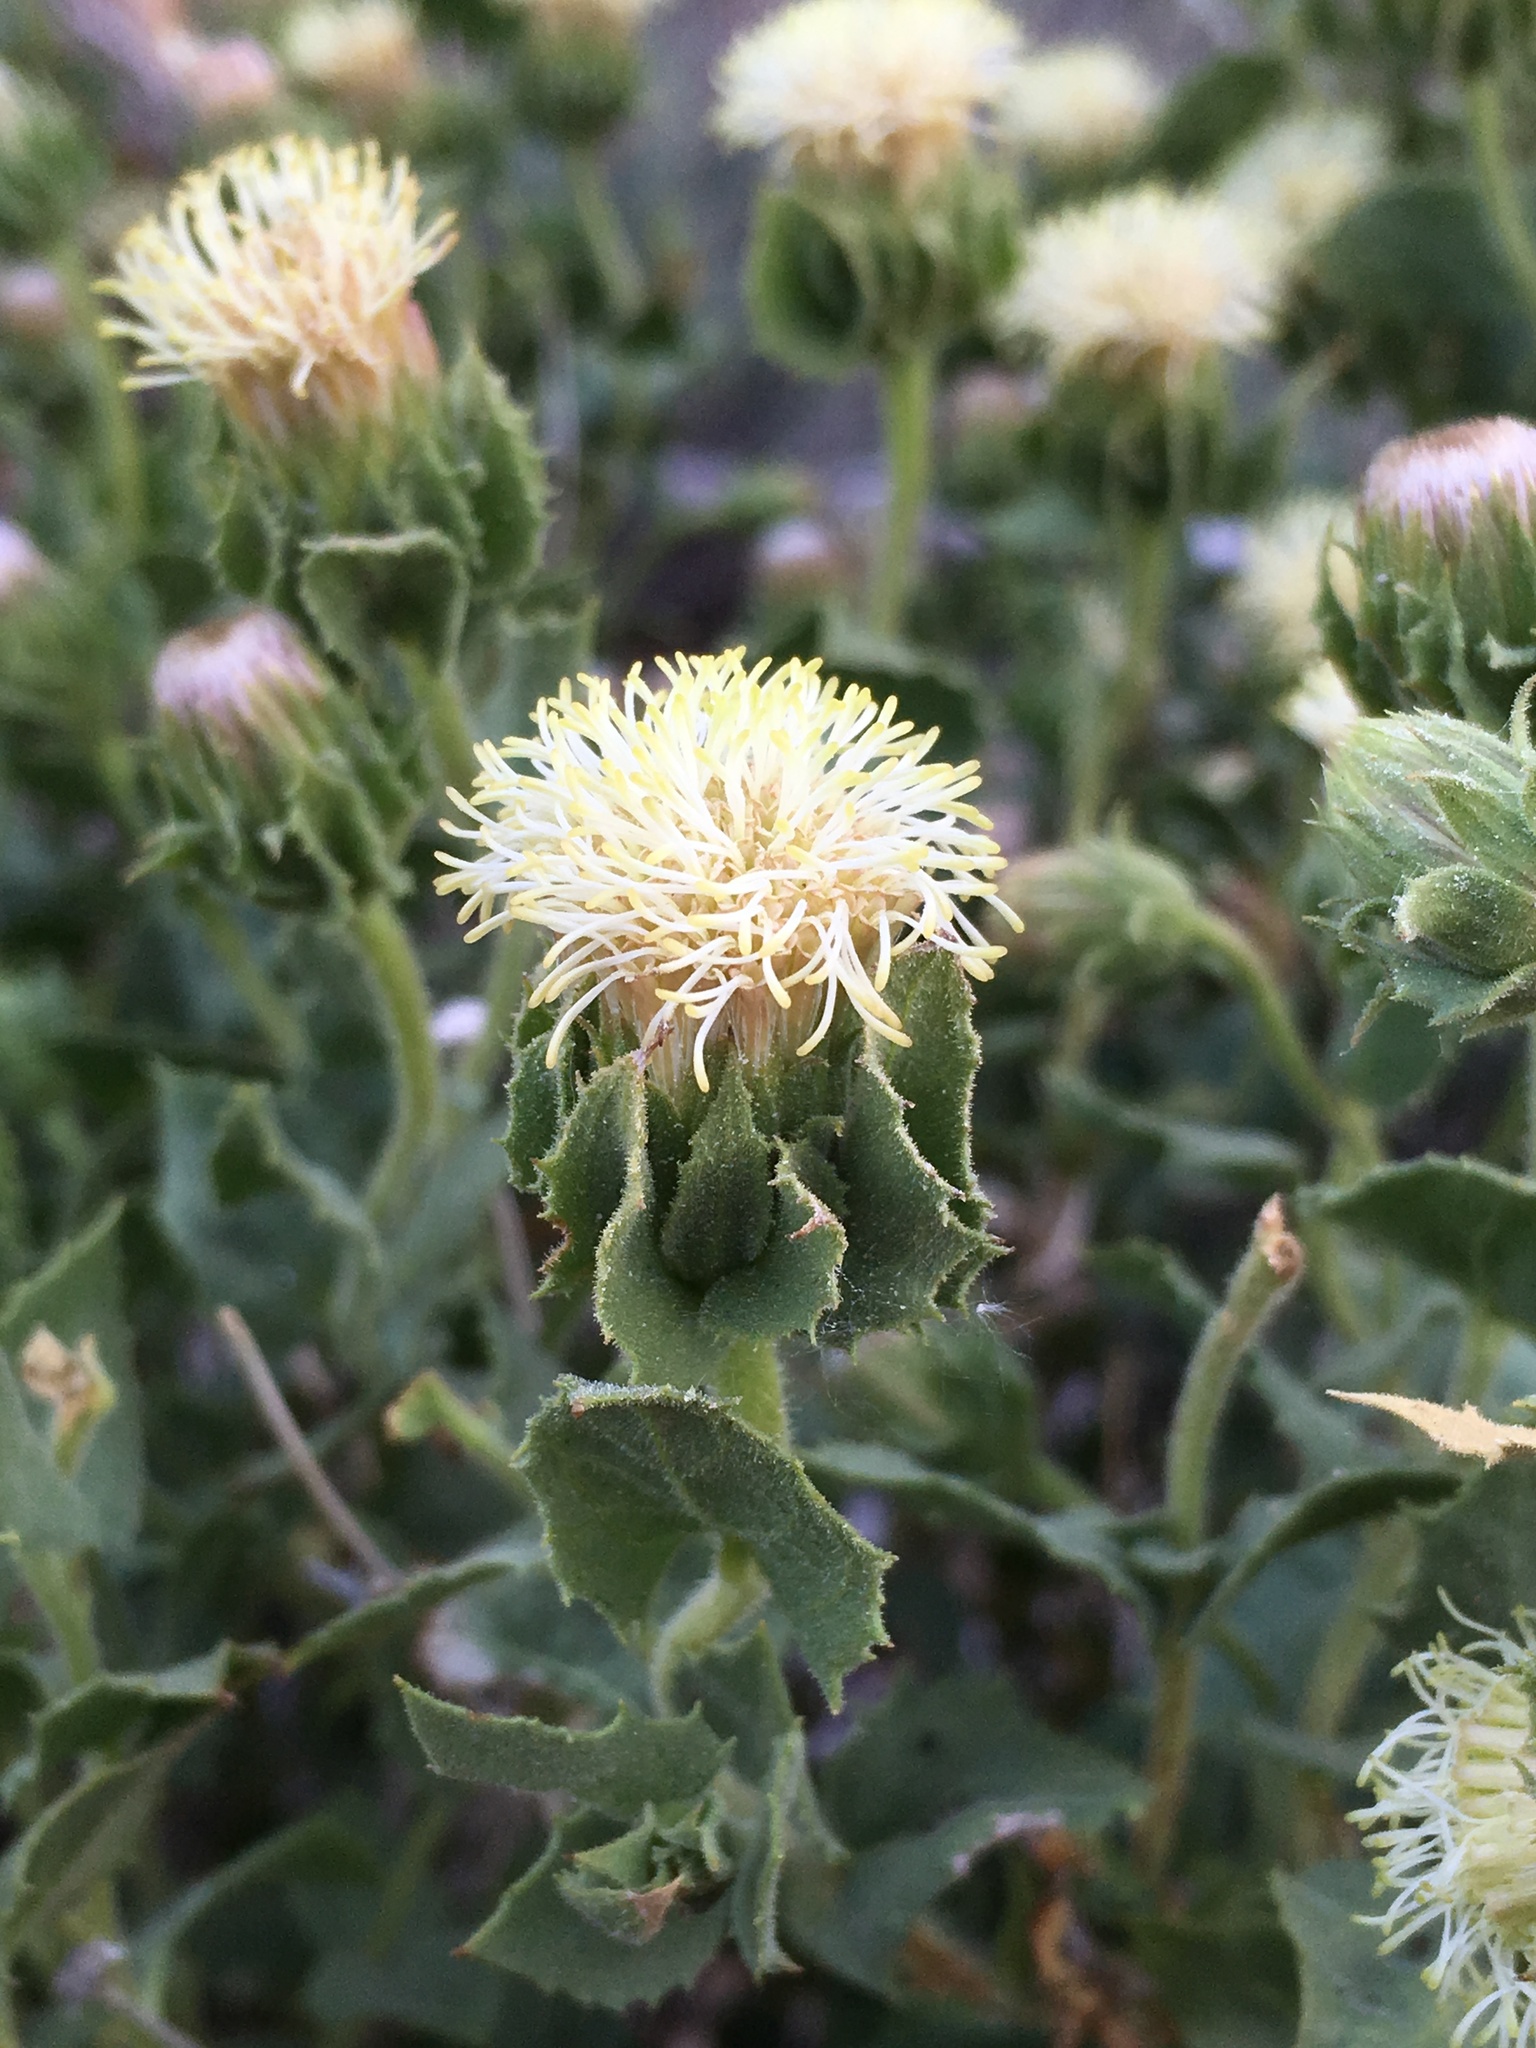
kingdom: Plantae
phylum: Tracheophyta
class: Magnoliopsida
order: Asterales
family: Asteraceae
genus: Brickellia
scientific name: Brickellia atractyloides
